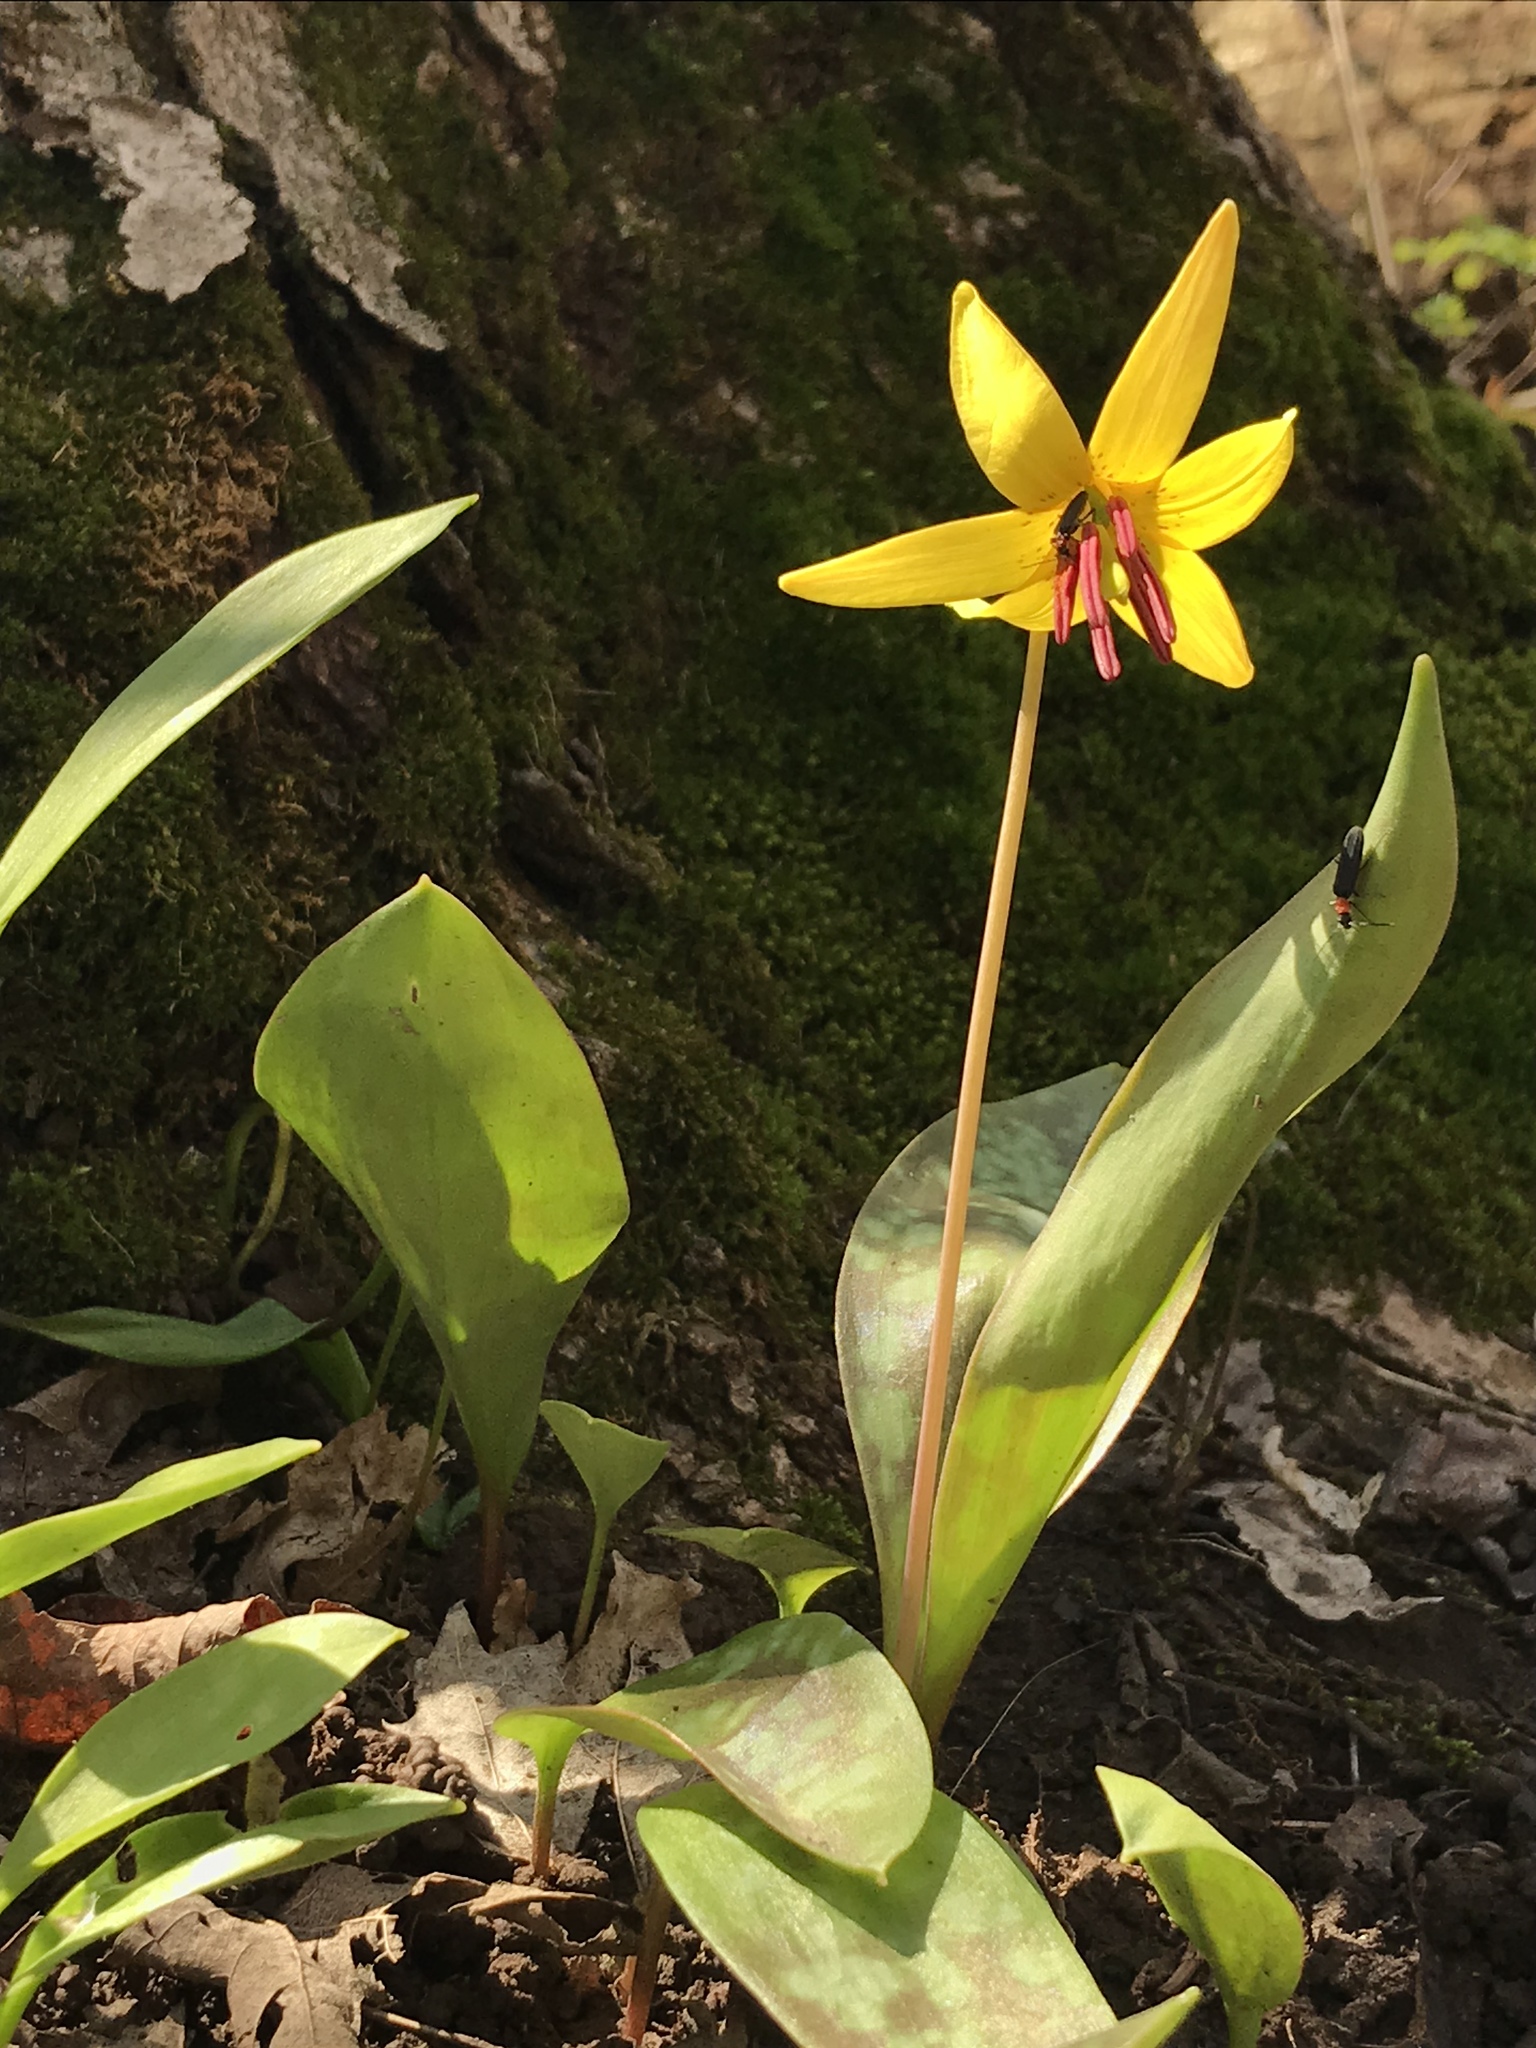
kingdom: Plantae
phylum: Tracheophyta
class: Liliopsida
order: Liliales
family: Liliaceae
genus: Erythronium
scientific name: Erythronium americanum
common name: Yellow adder's-tongue
